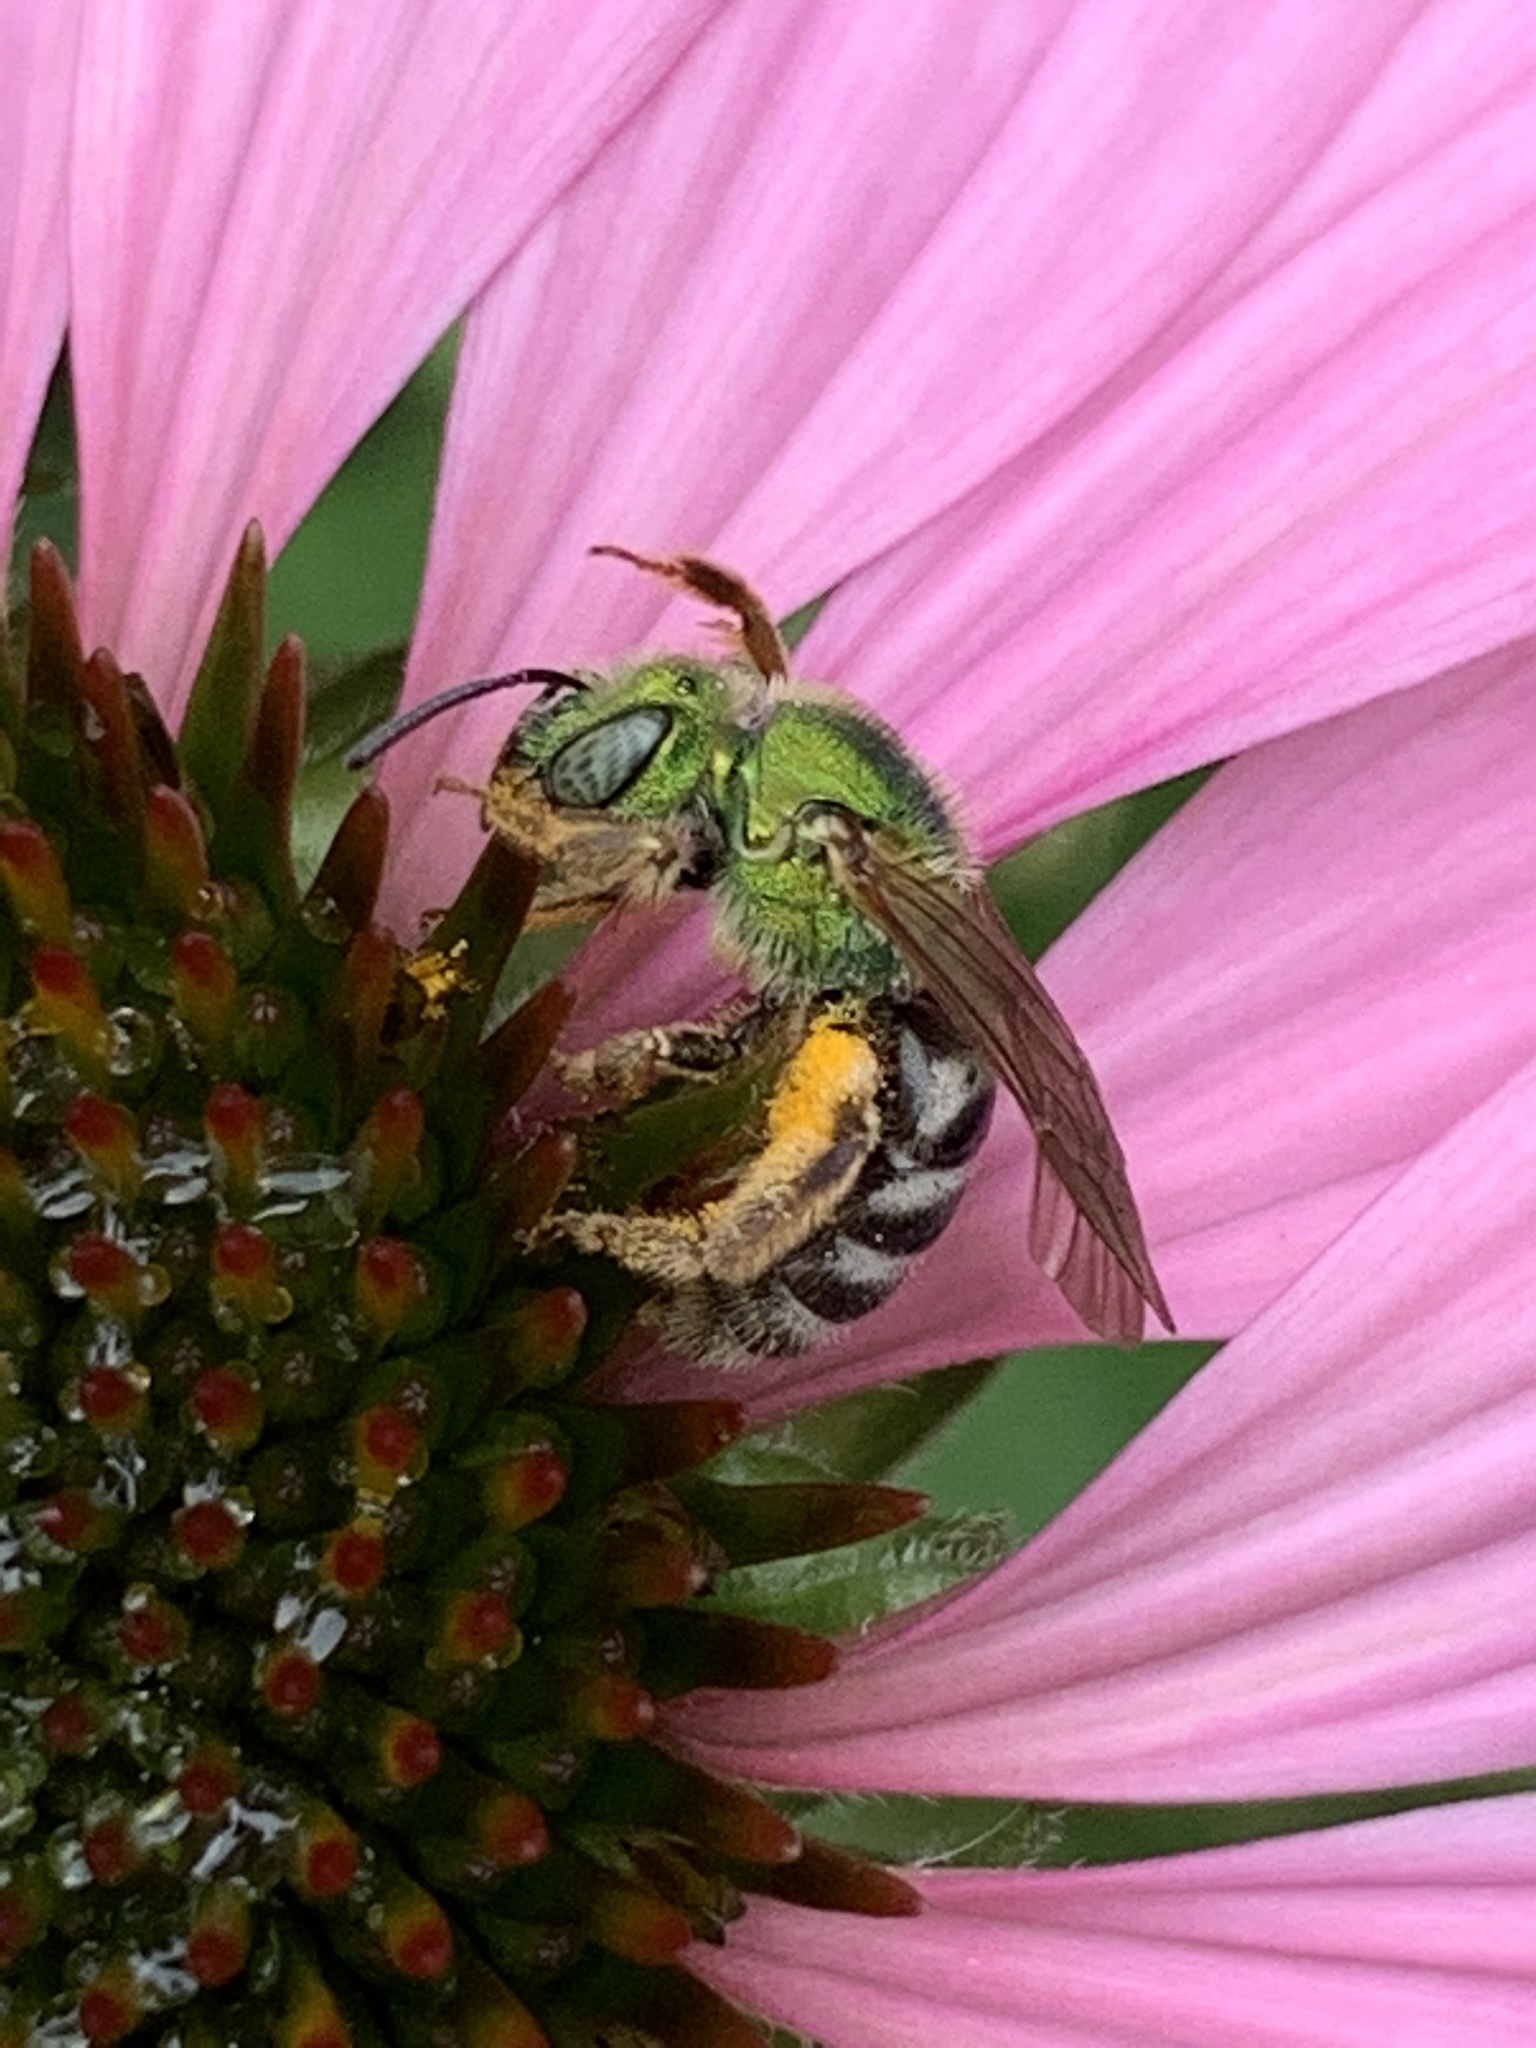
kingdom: Animalia
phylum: Arthropoda
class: Insecta
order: Hymenoptera
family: Halictidae
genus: Agapostemon
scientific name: Agapostemon virescens
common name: Bicolored striped sweat bee
